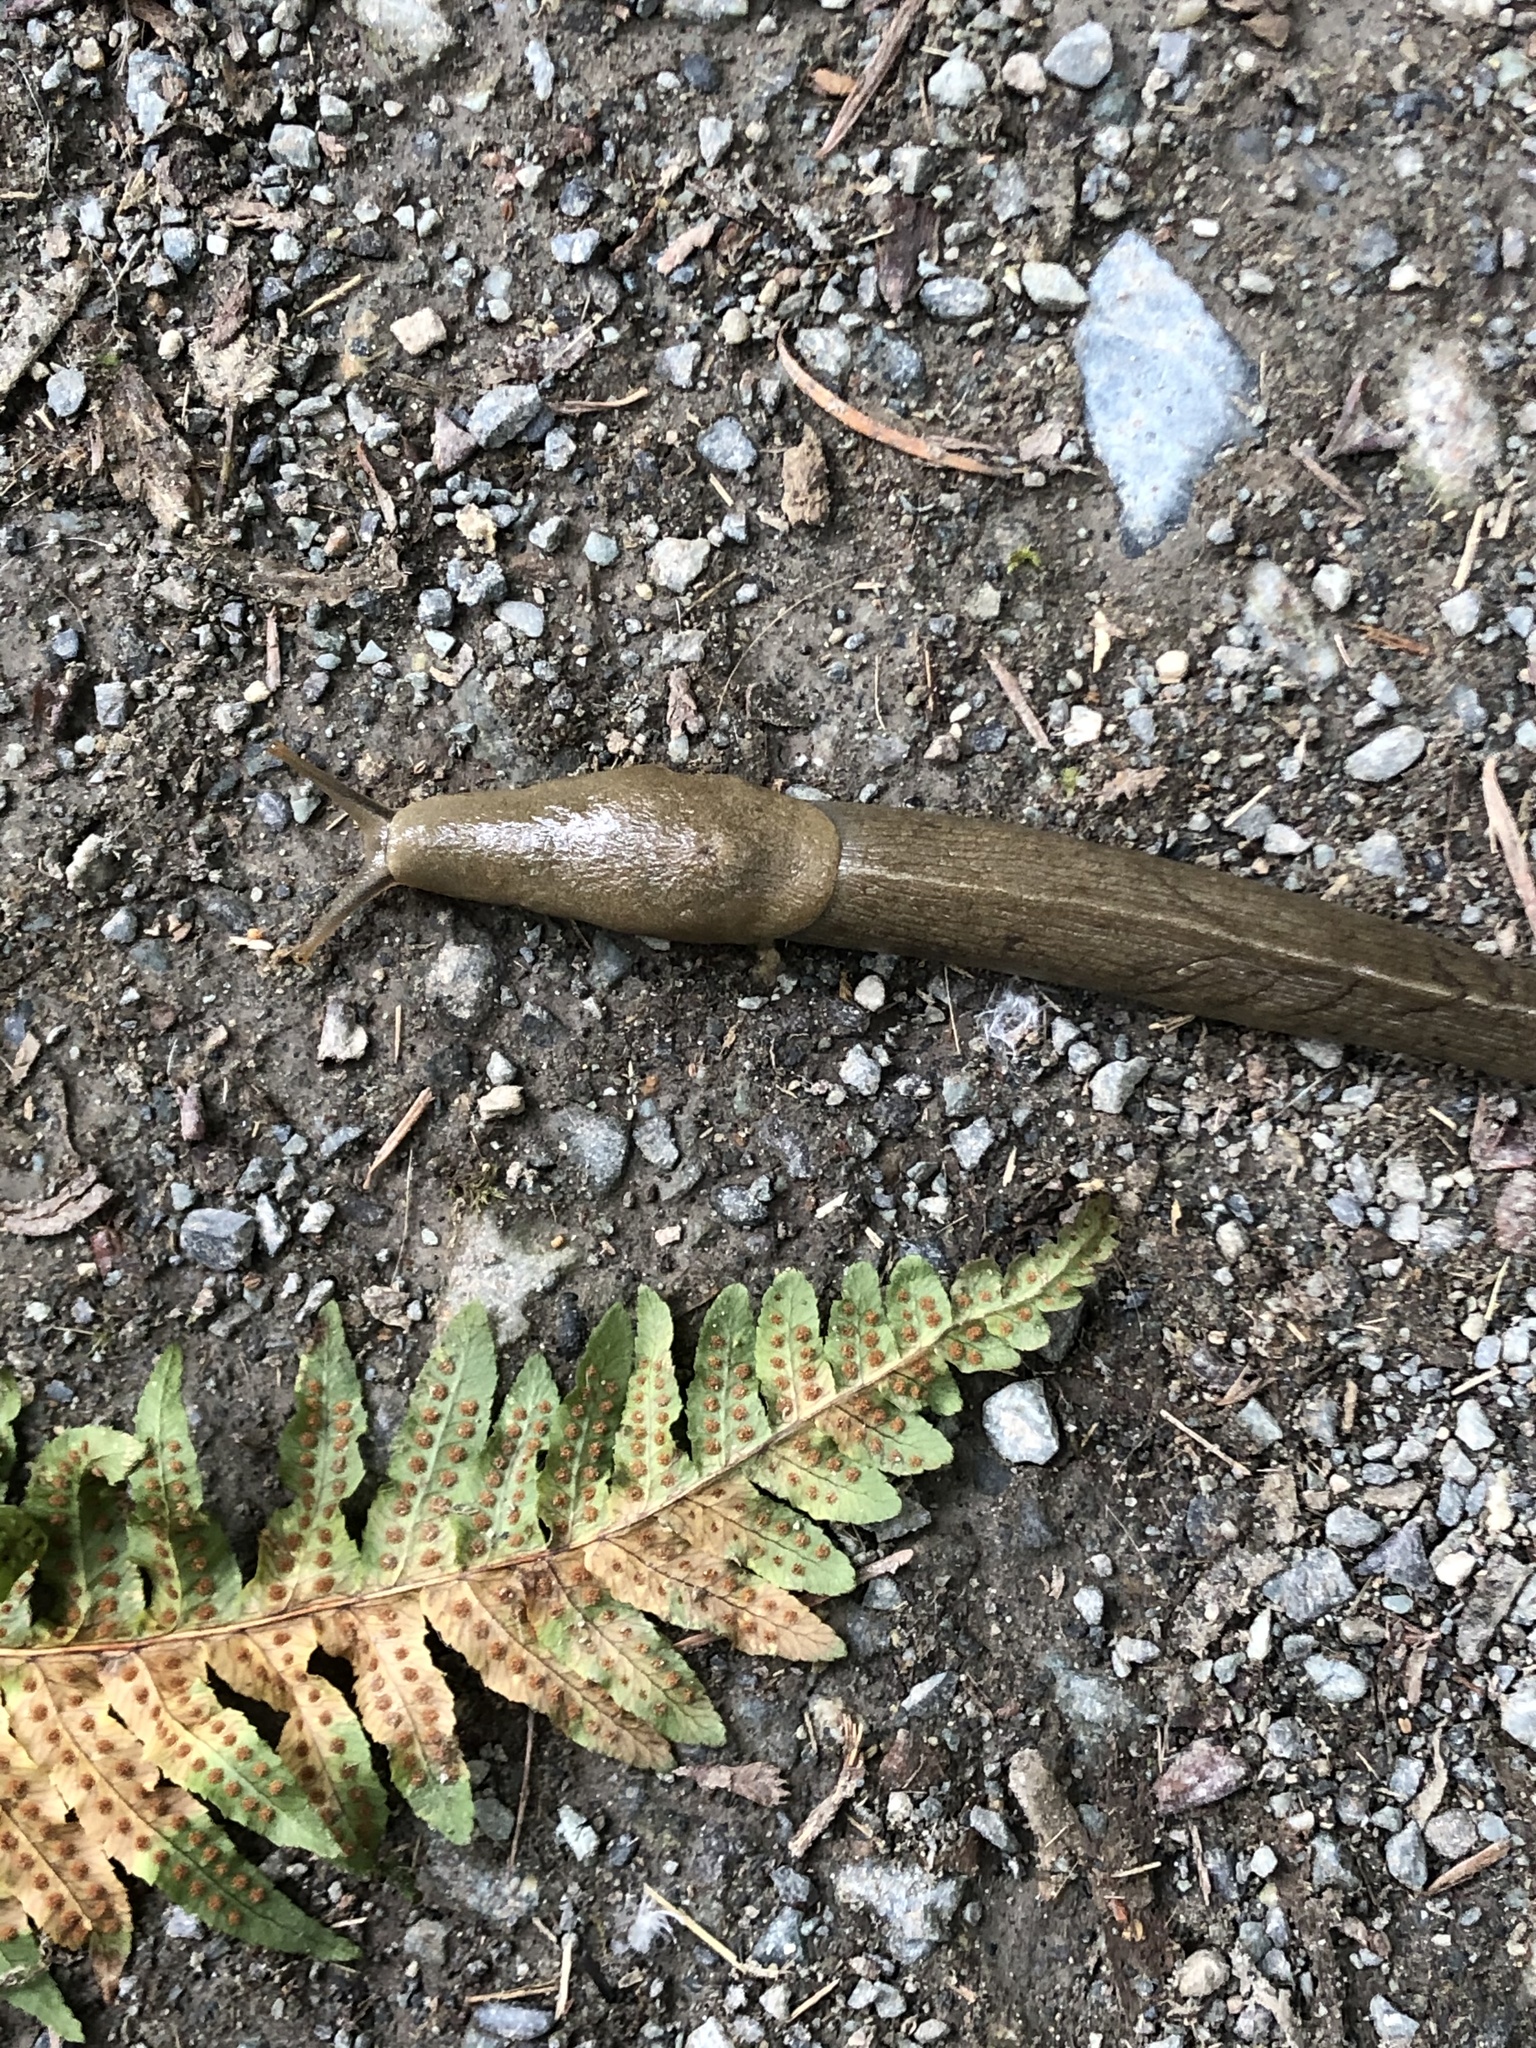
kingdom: Animalia
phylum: Mollusca
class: Gastropoda
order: Stylommatophora
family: Ariolimacidae
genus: Ariolimax
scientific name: Ariolimax columbianus
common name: Pacific banana slug
